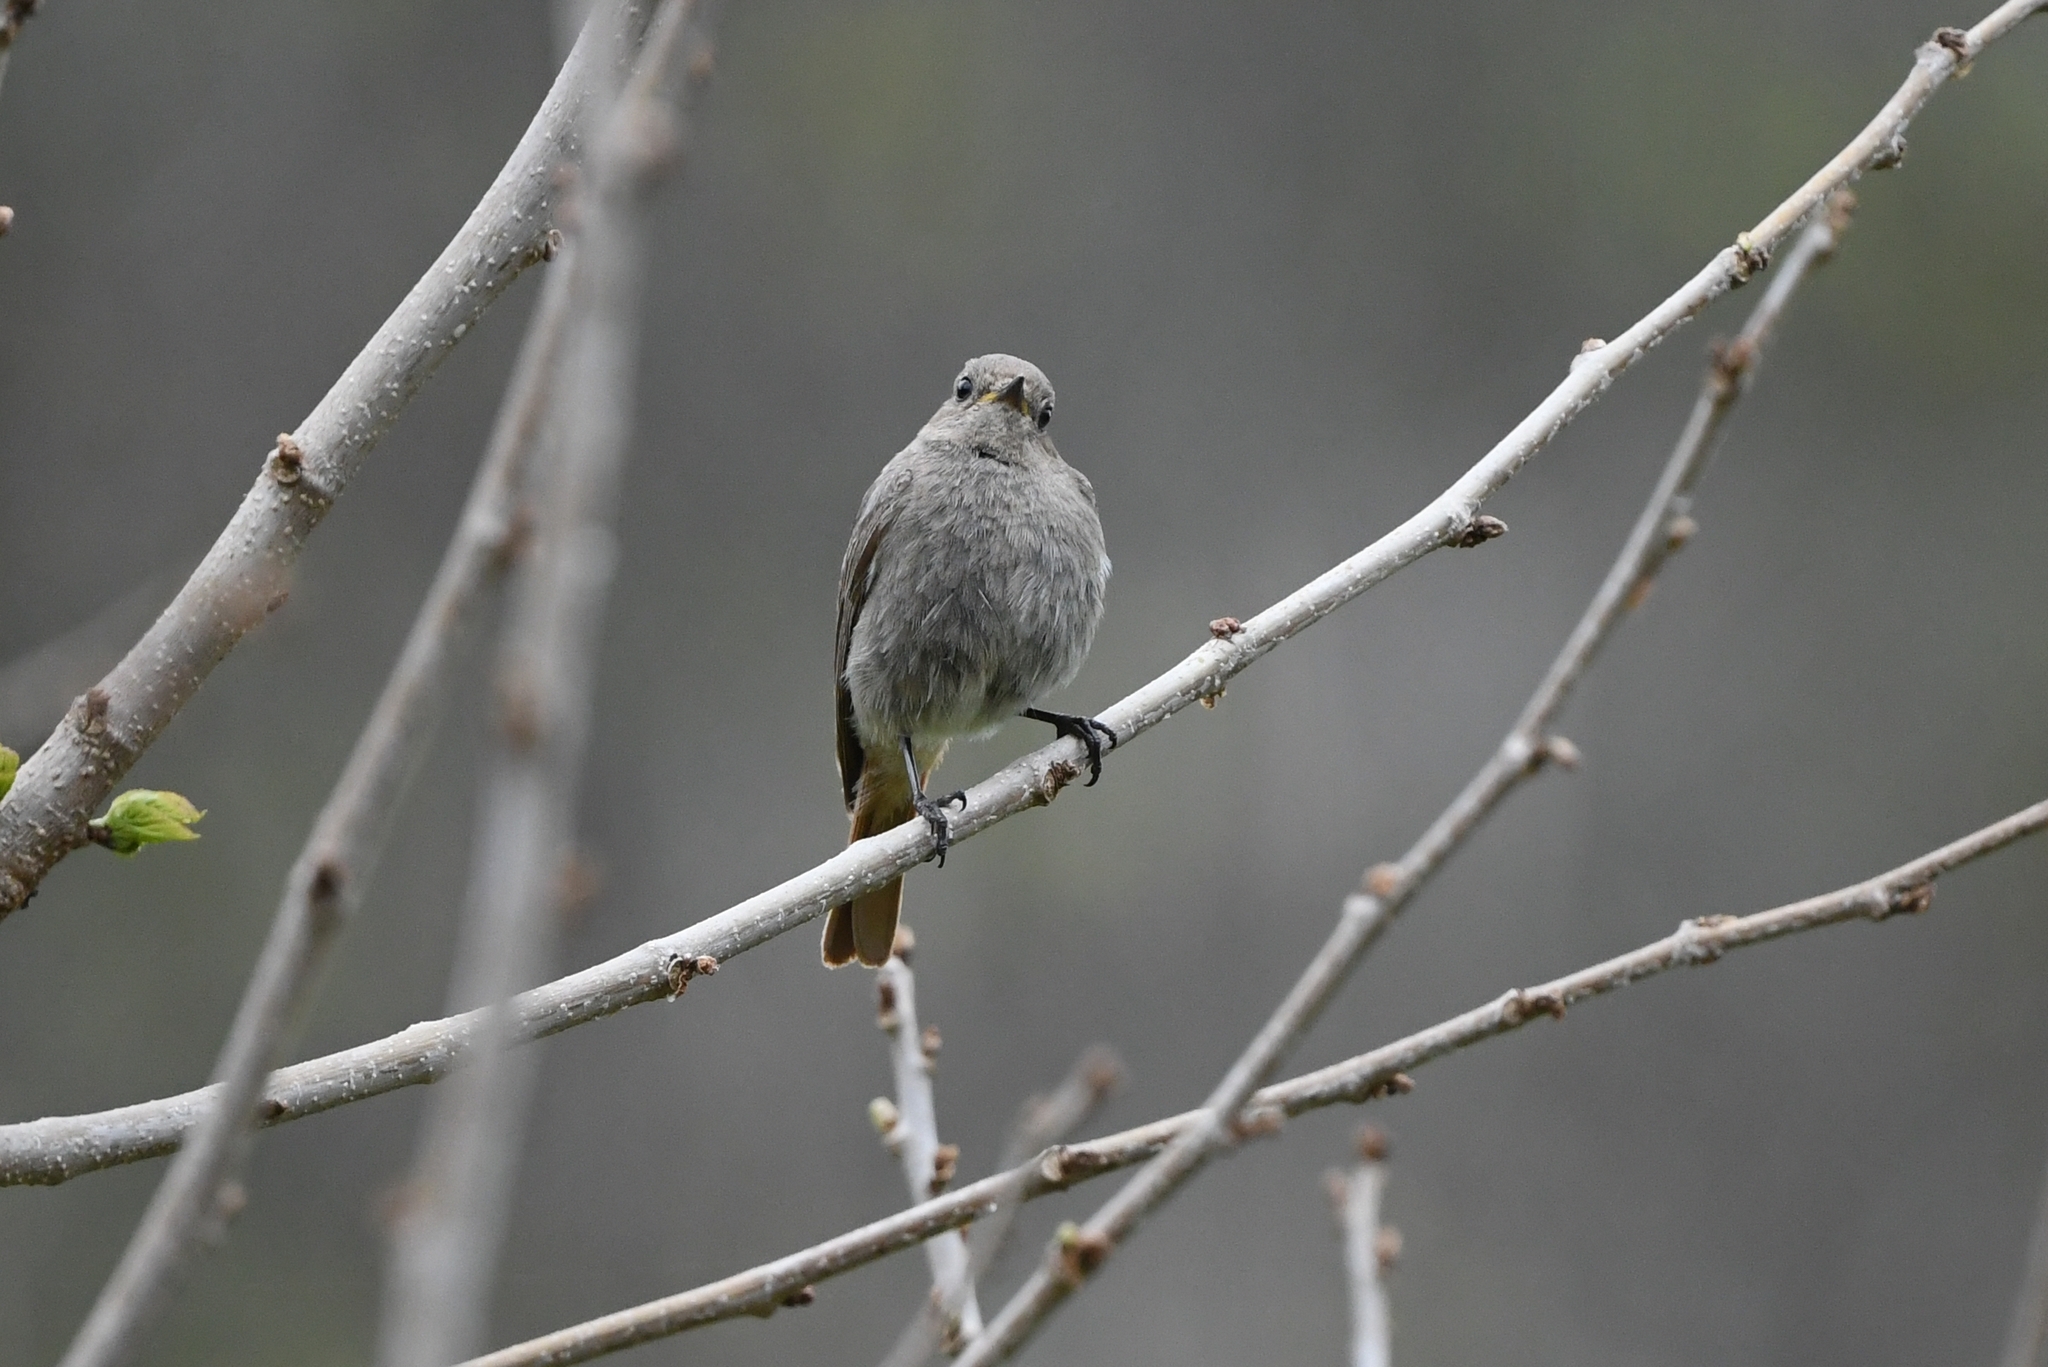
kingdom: Animalia
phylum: Chordata
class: Aves
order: Passeriformes
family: Muscicapidae
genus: Phoenicurus
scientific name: Phoenicurus ochruros
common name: Black redstart
